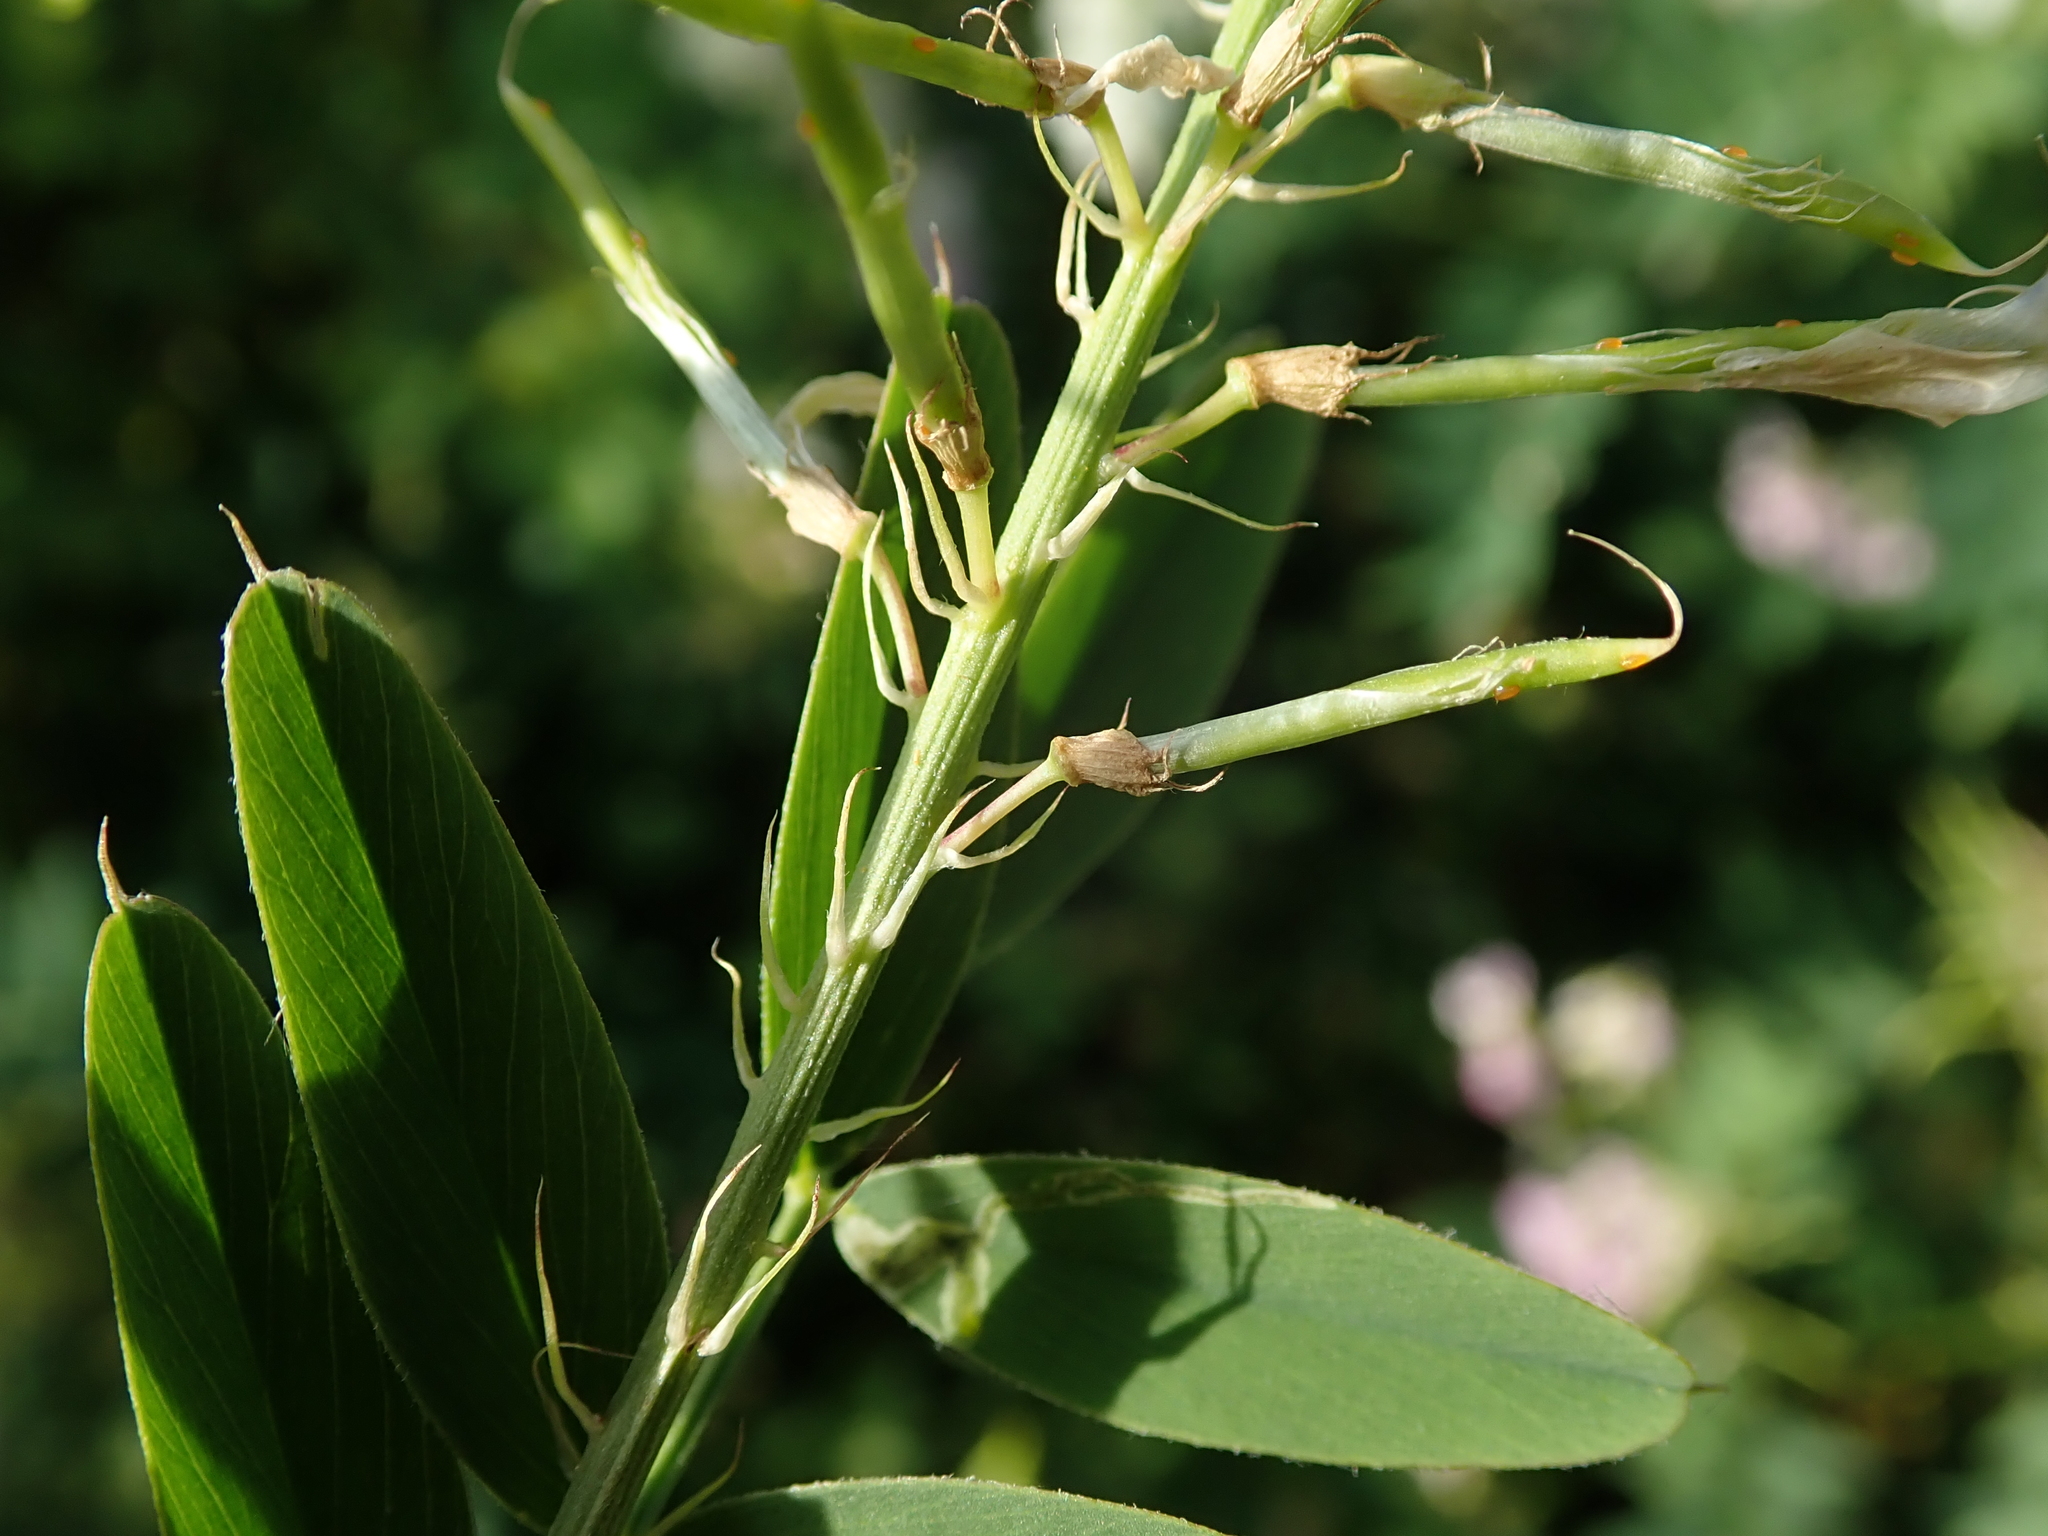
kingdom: Plantae
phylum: Tracheophyta
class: Magnoliopsida
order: Fabales
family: Fabaceae
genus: Galega
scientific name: Galega officinalis
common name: Goat's-rue
